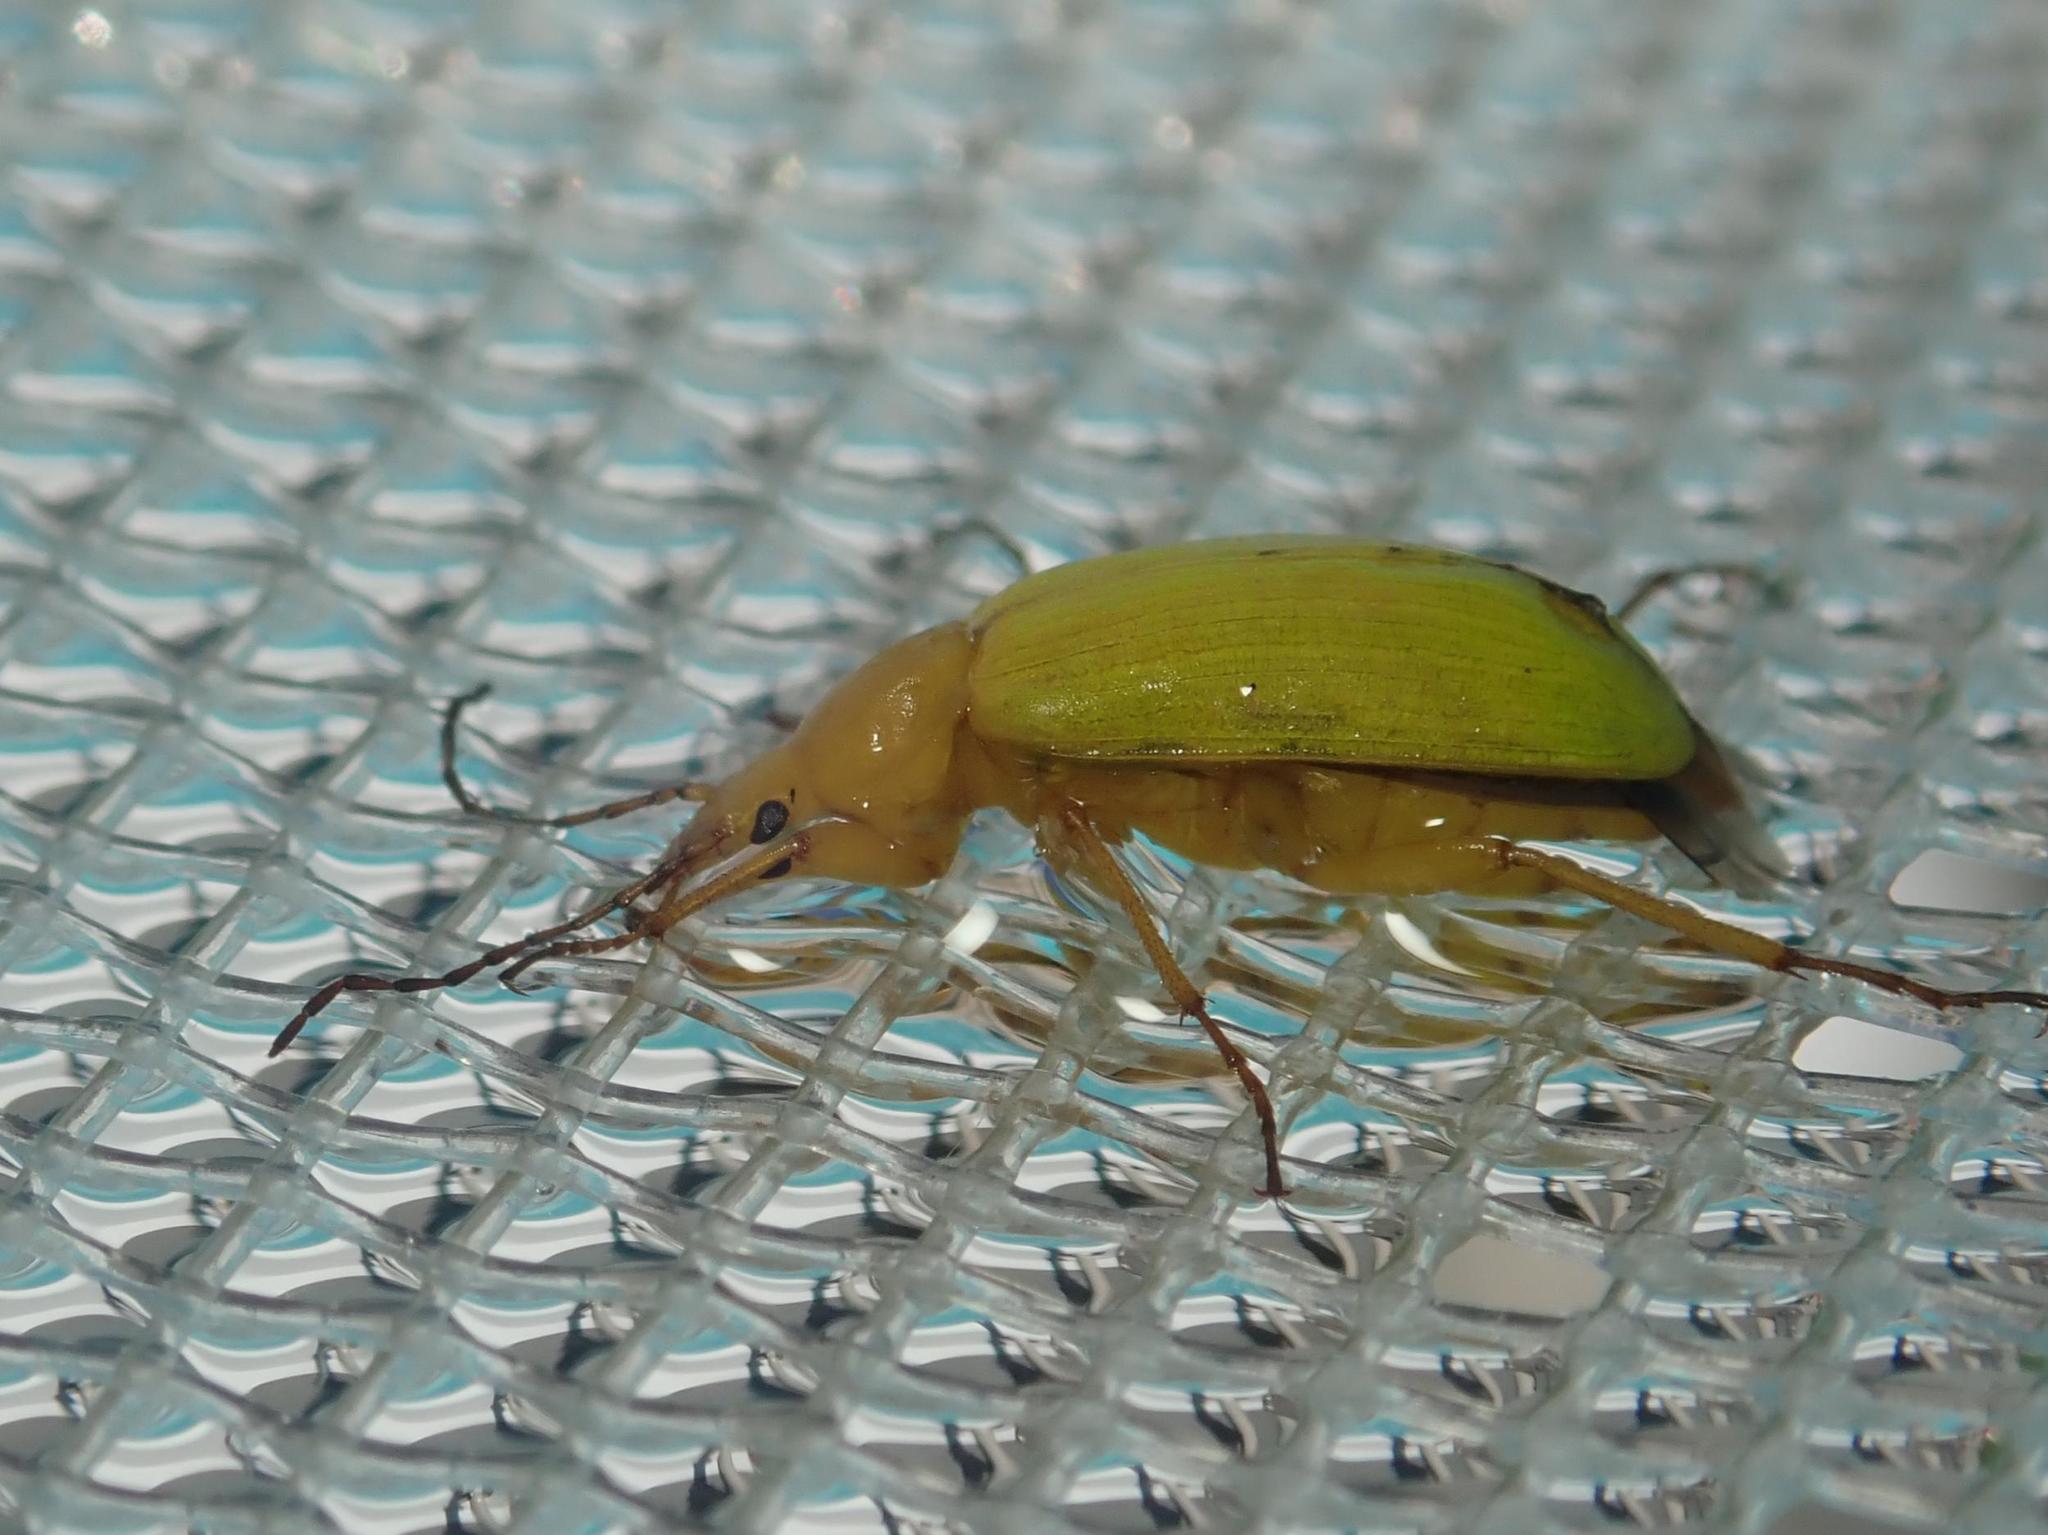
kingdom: Animalia
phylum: Arthropoda
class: Insecta
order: Coleoptera
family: Tenebrionidae
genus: Cteniopus
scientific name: Cteniopus sulphureus
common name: Sulphur beetle
